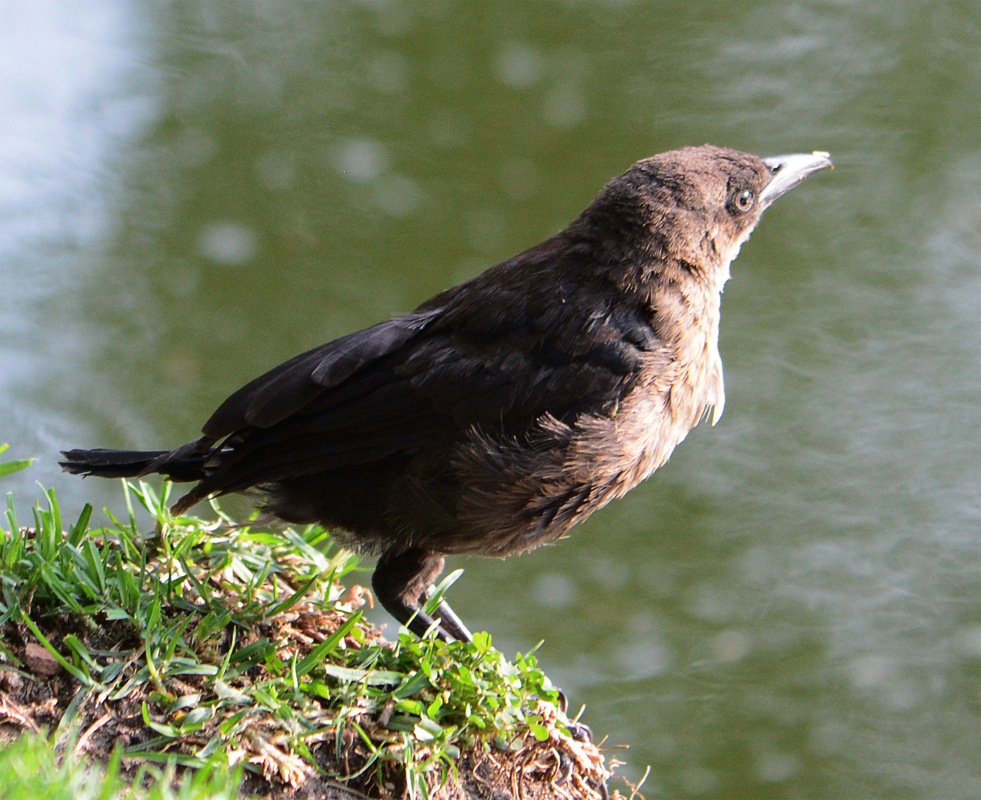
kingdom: Animalia
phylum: Chordata
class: Aves
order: Passeriformes
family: Icteridae
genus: Quiscalus
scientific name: Quiscalus mexicanus
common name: Great-tailed grackle
